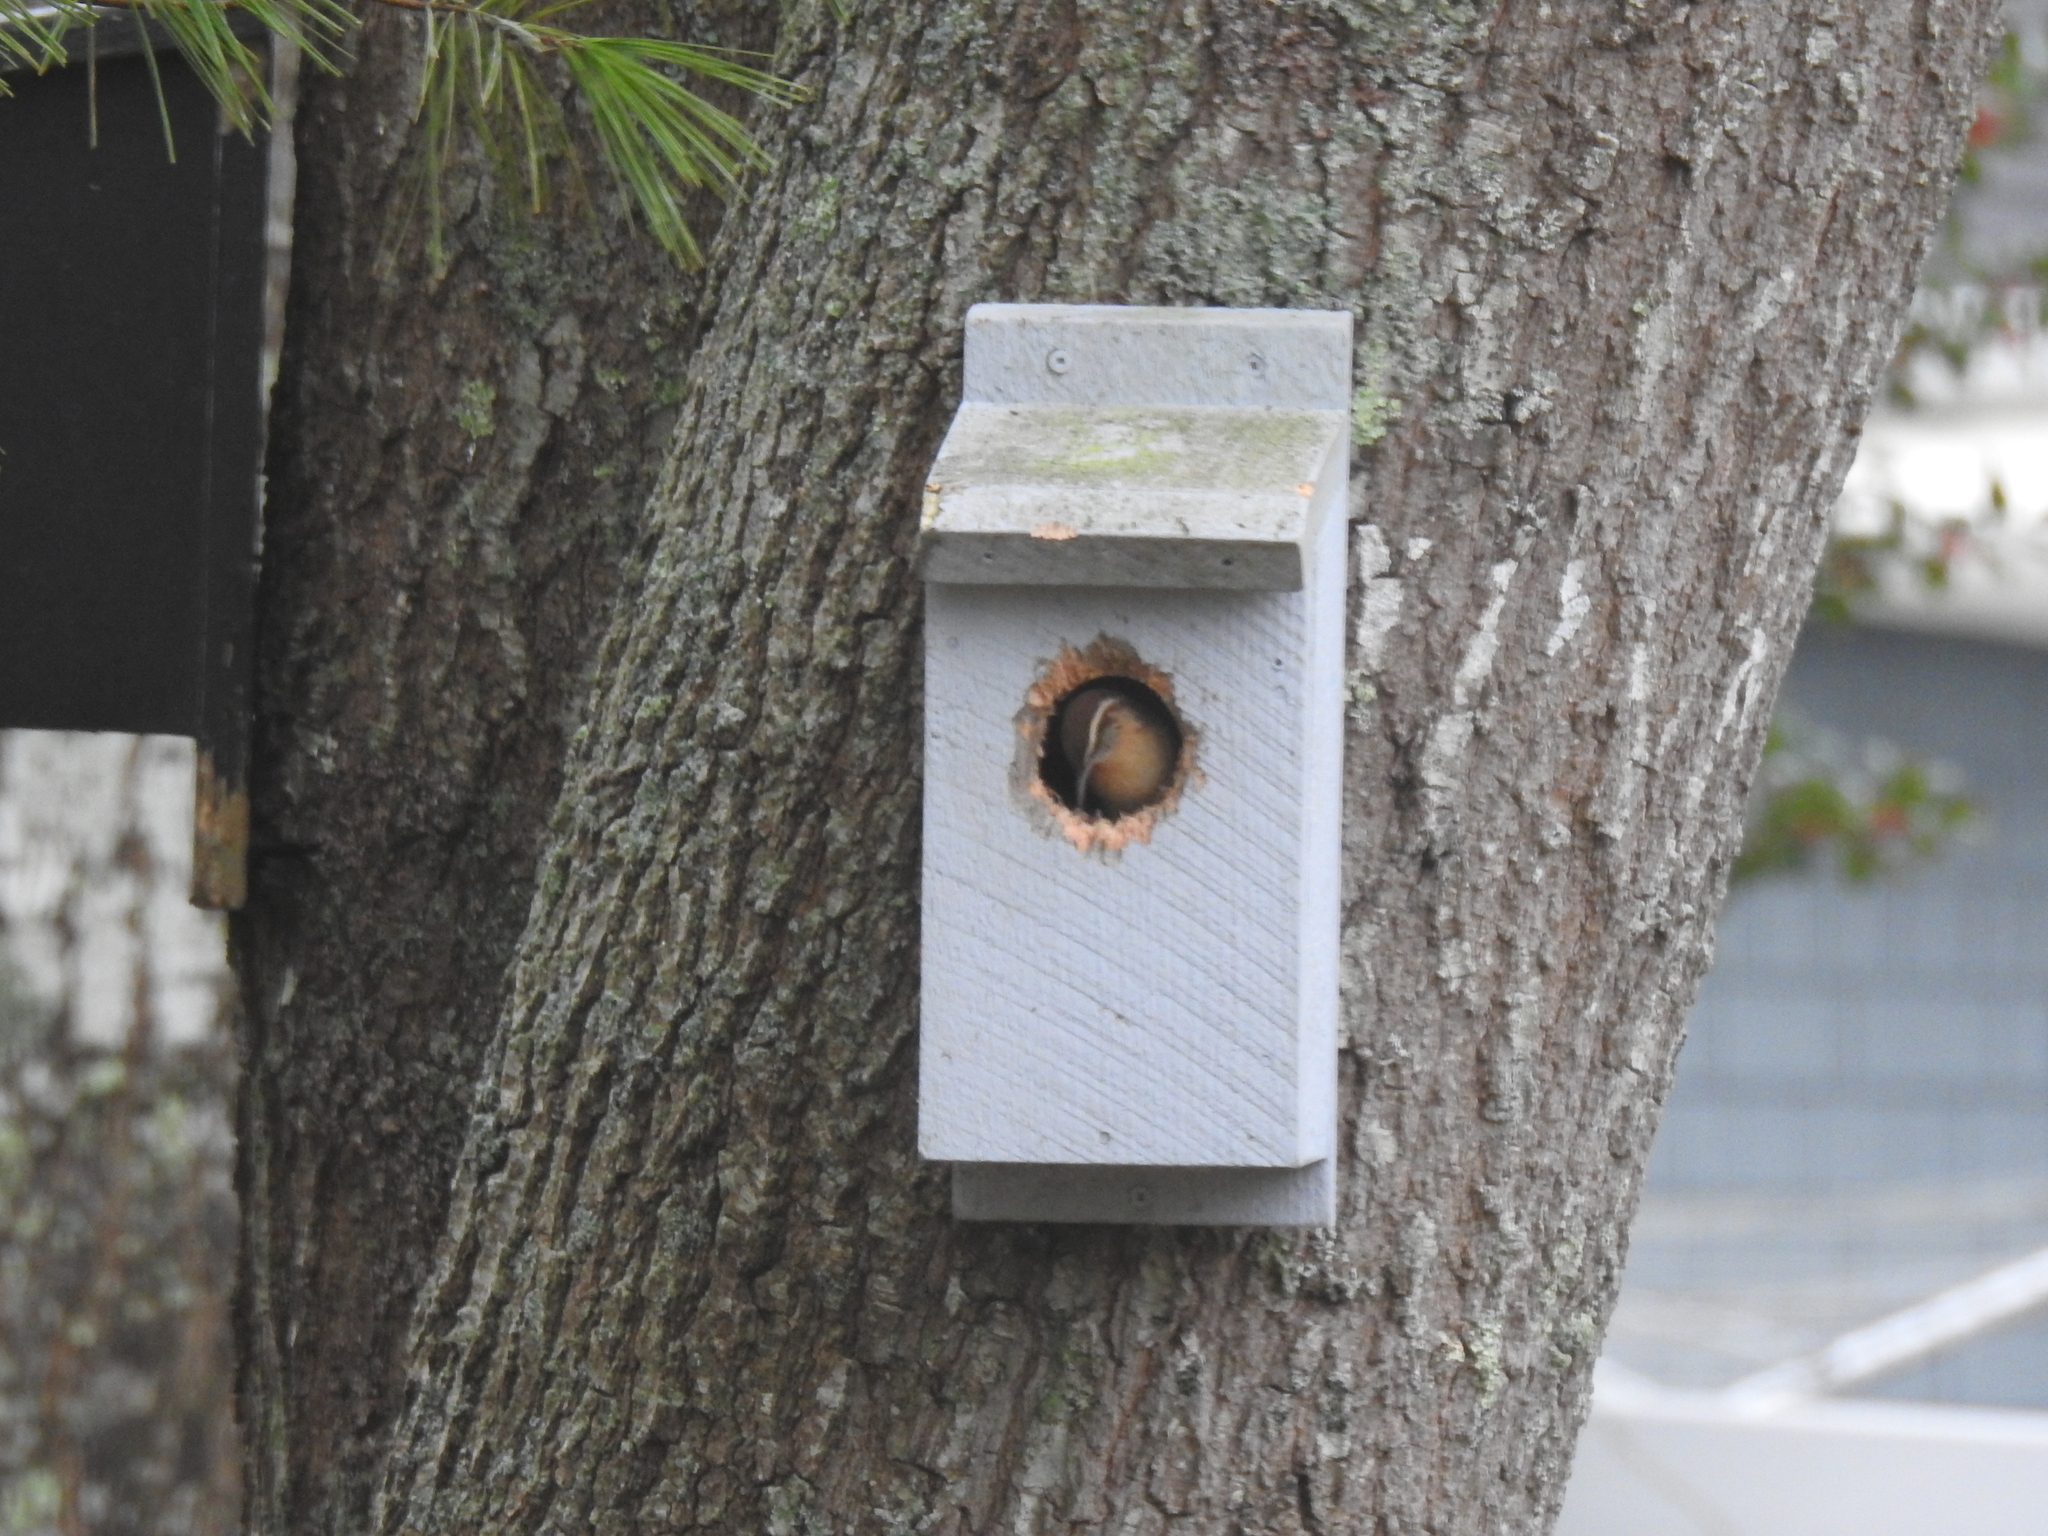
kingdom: Animalia
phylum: Chordata
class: Aves
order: Passeriformes
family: Troglodytidae
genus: Thryothorus
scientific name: Thryothorus ludovicianus
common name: Carolina wren
